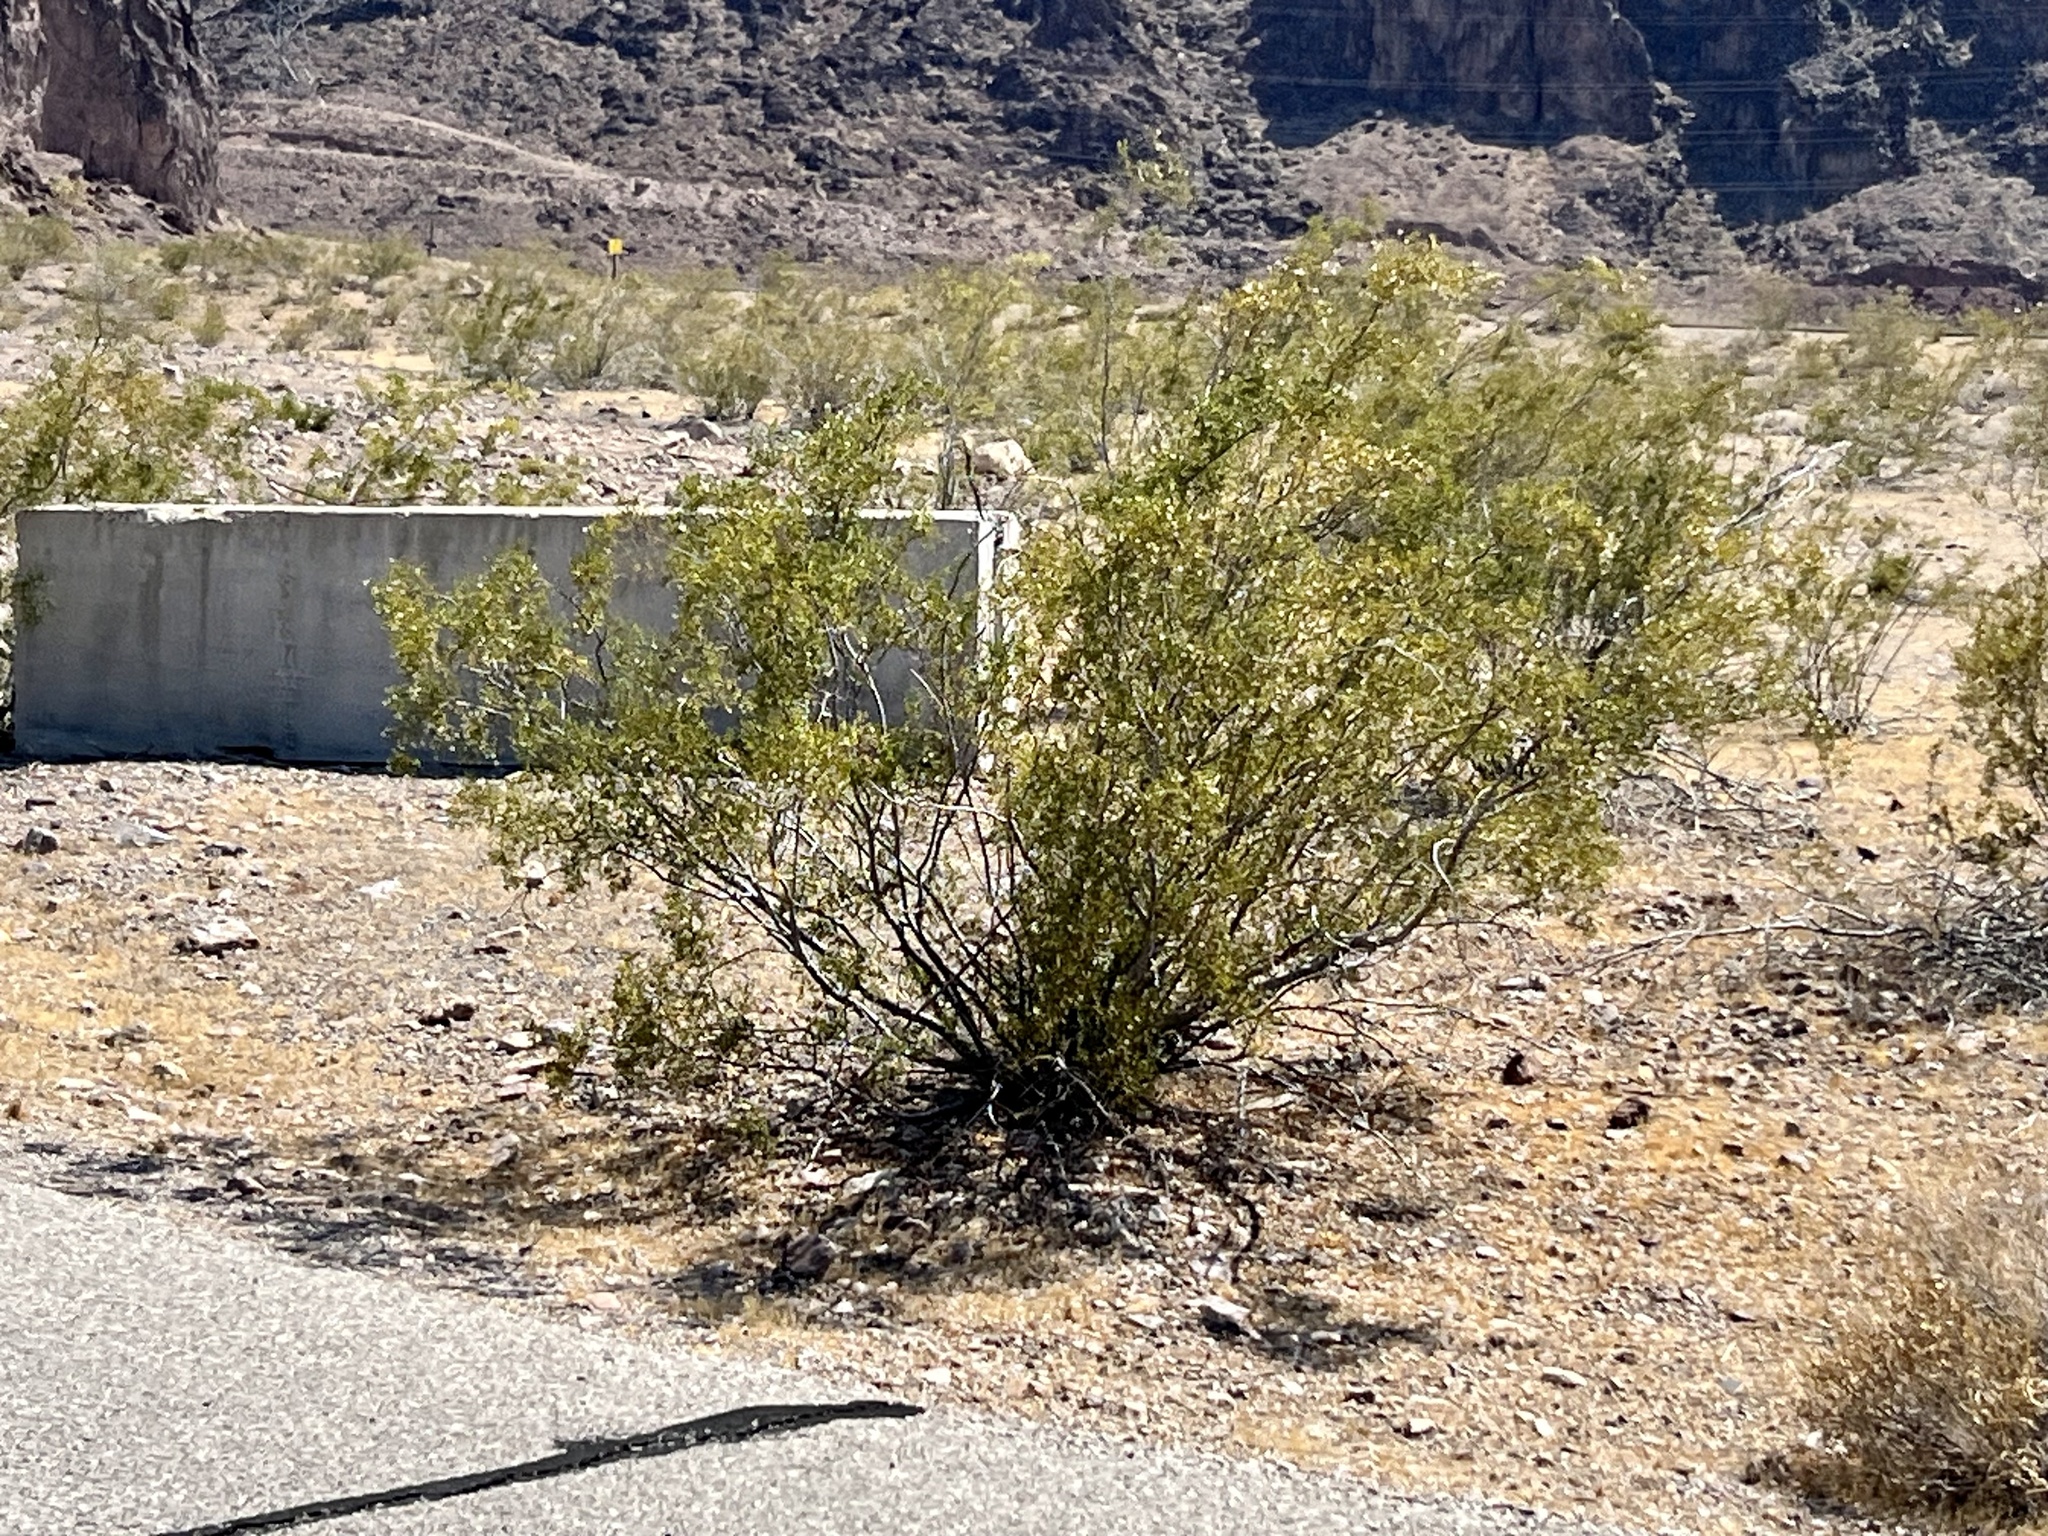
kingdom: Plantae
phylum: Tracheophyta
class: Magnoliopsida
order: Zygophyllales
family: Zygophyllaceae
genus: Larrea
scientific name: Larrea tridentata
